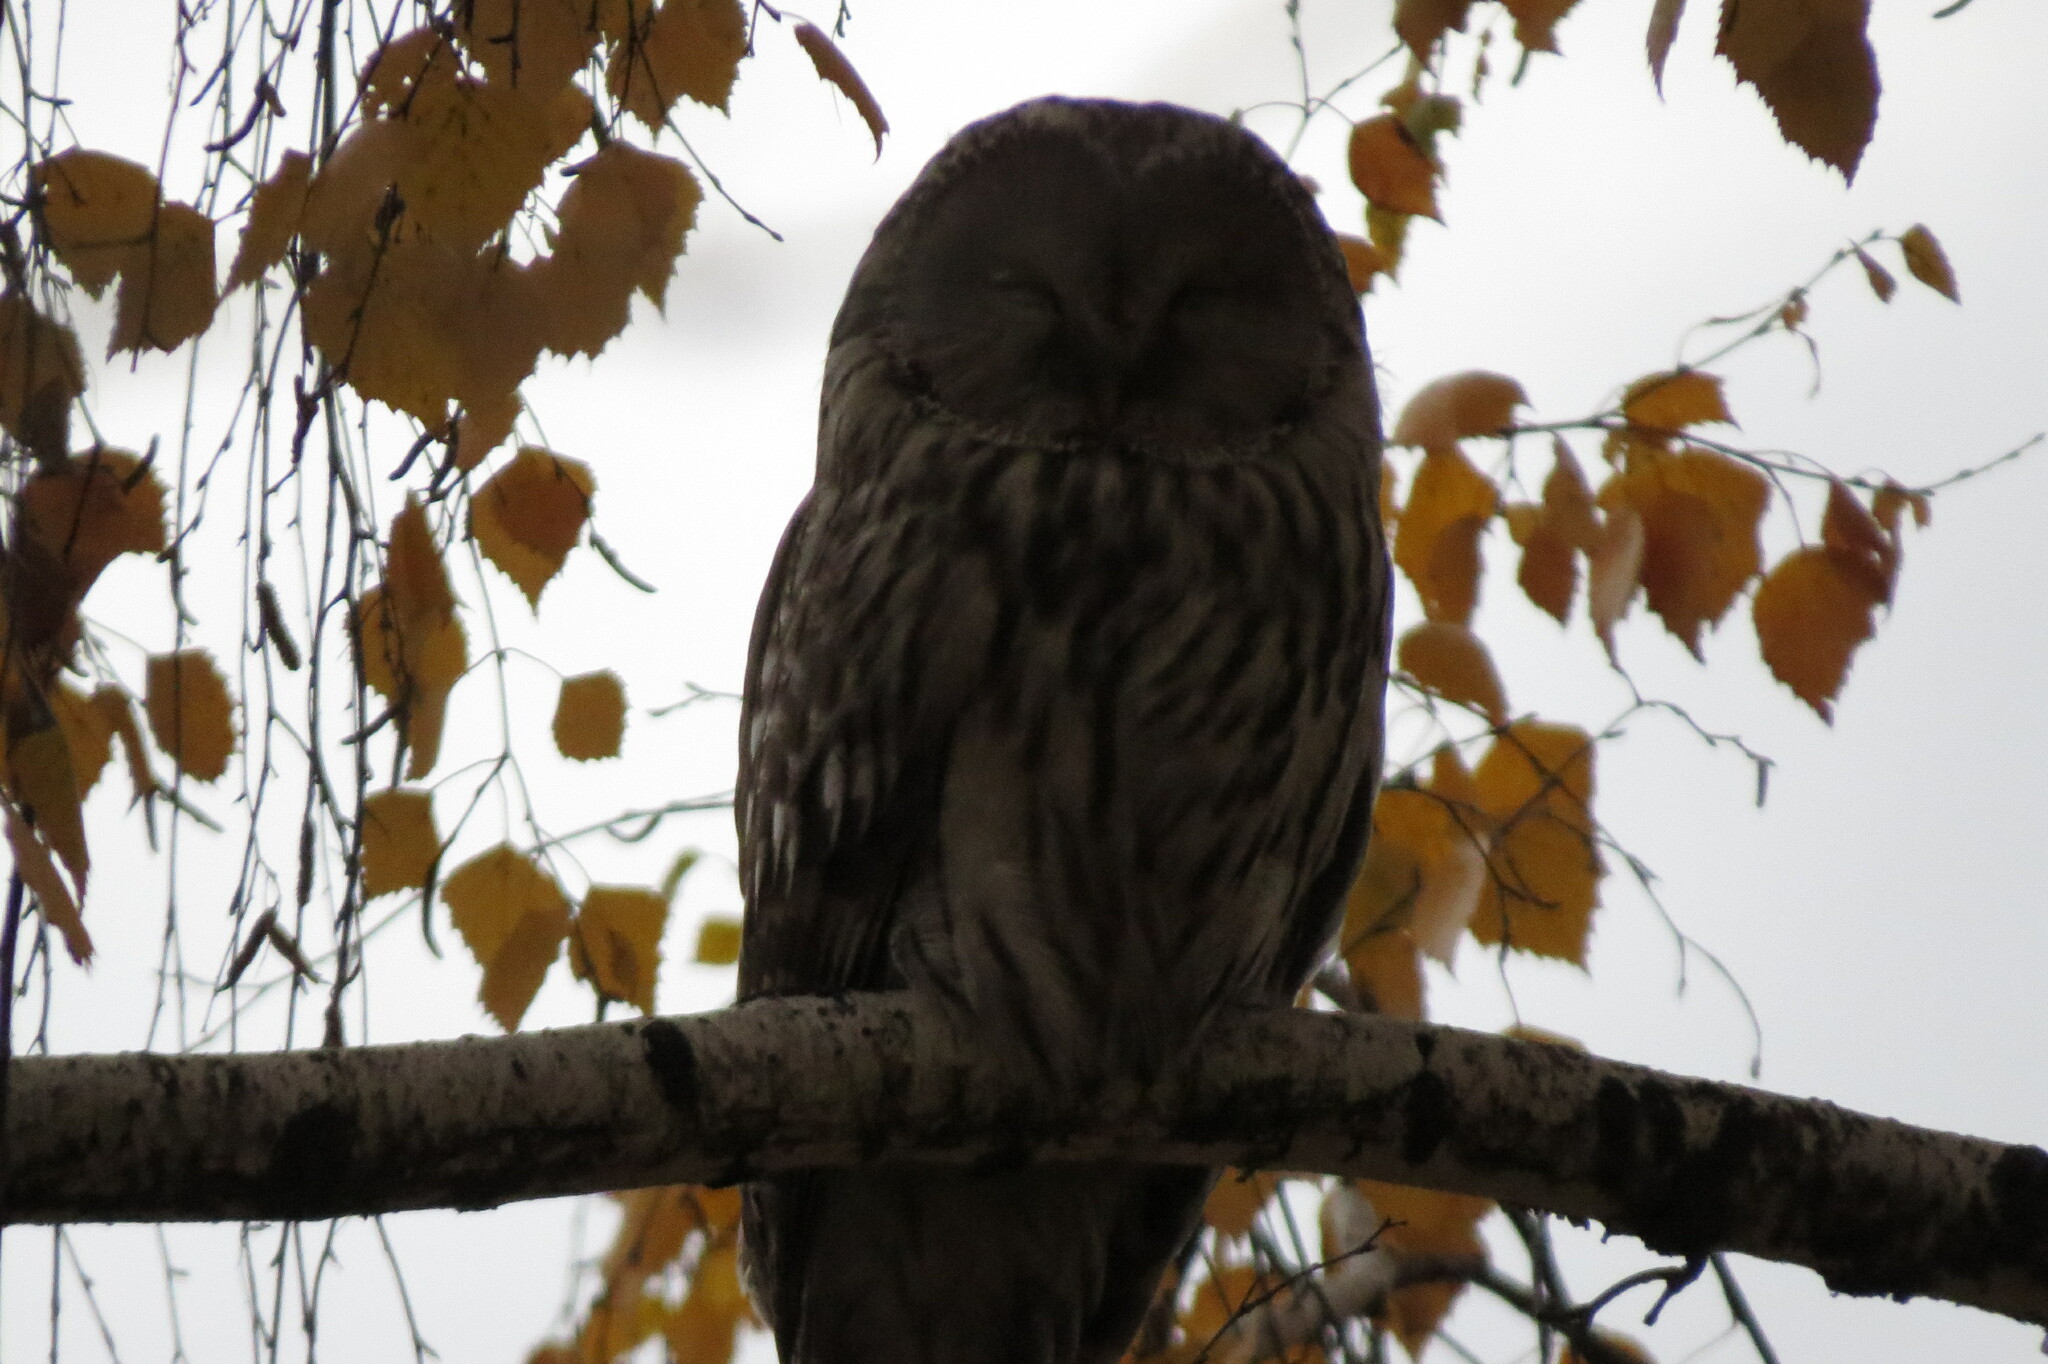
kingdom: Animalia
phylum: Chordata
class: Aves
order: Strigiformes
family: Strigidae
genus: Strix
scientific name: Strix uralensis
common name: Ural owl
